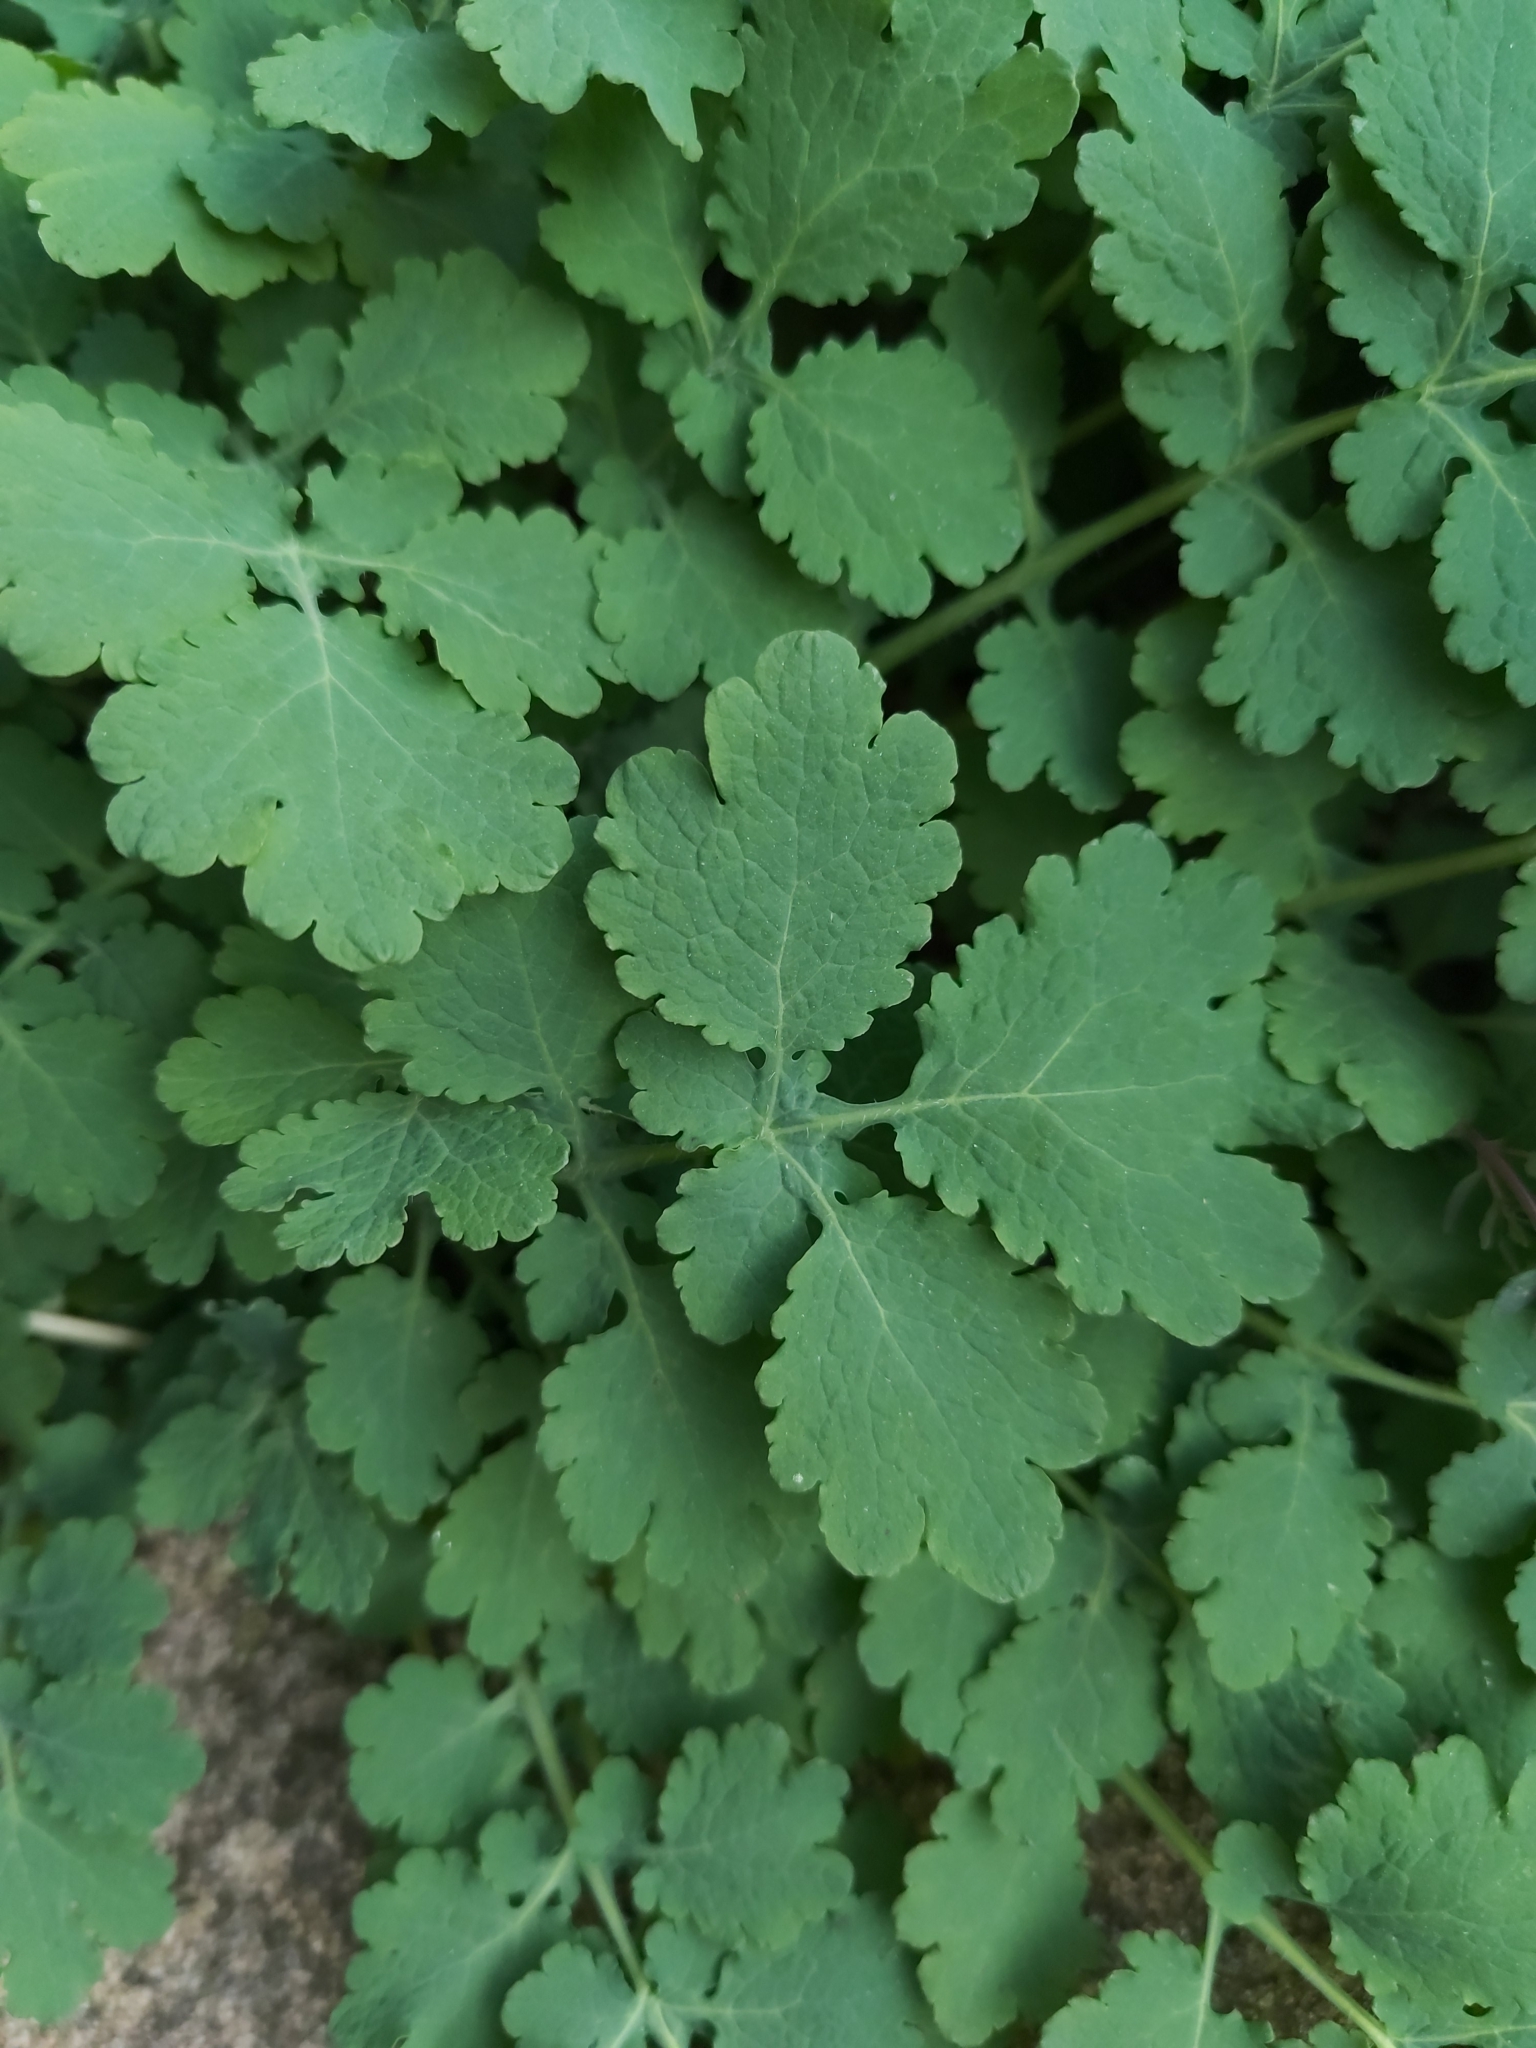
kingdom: Plantae
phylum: Tracheophyta
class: Magnoliopsida
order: Ranunculales
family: Papaveraceae
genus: Chelidonium
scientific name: Chelidonium majus
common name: Greater celandine
